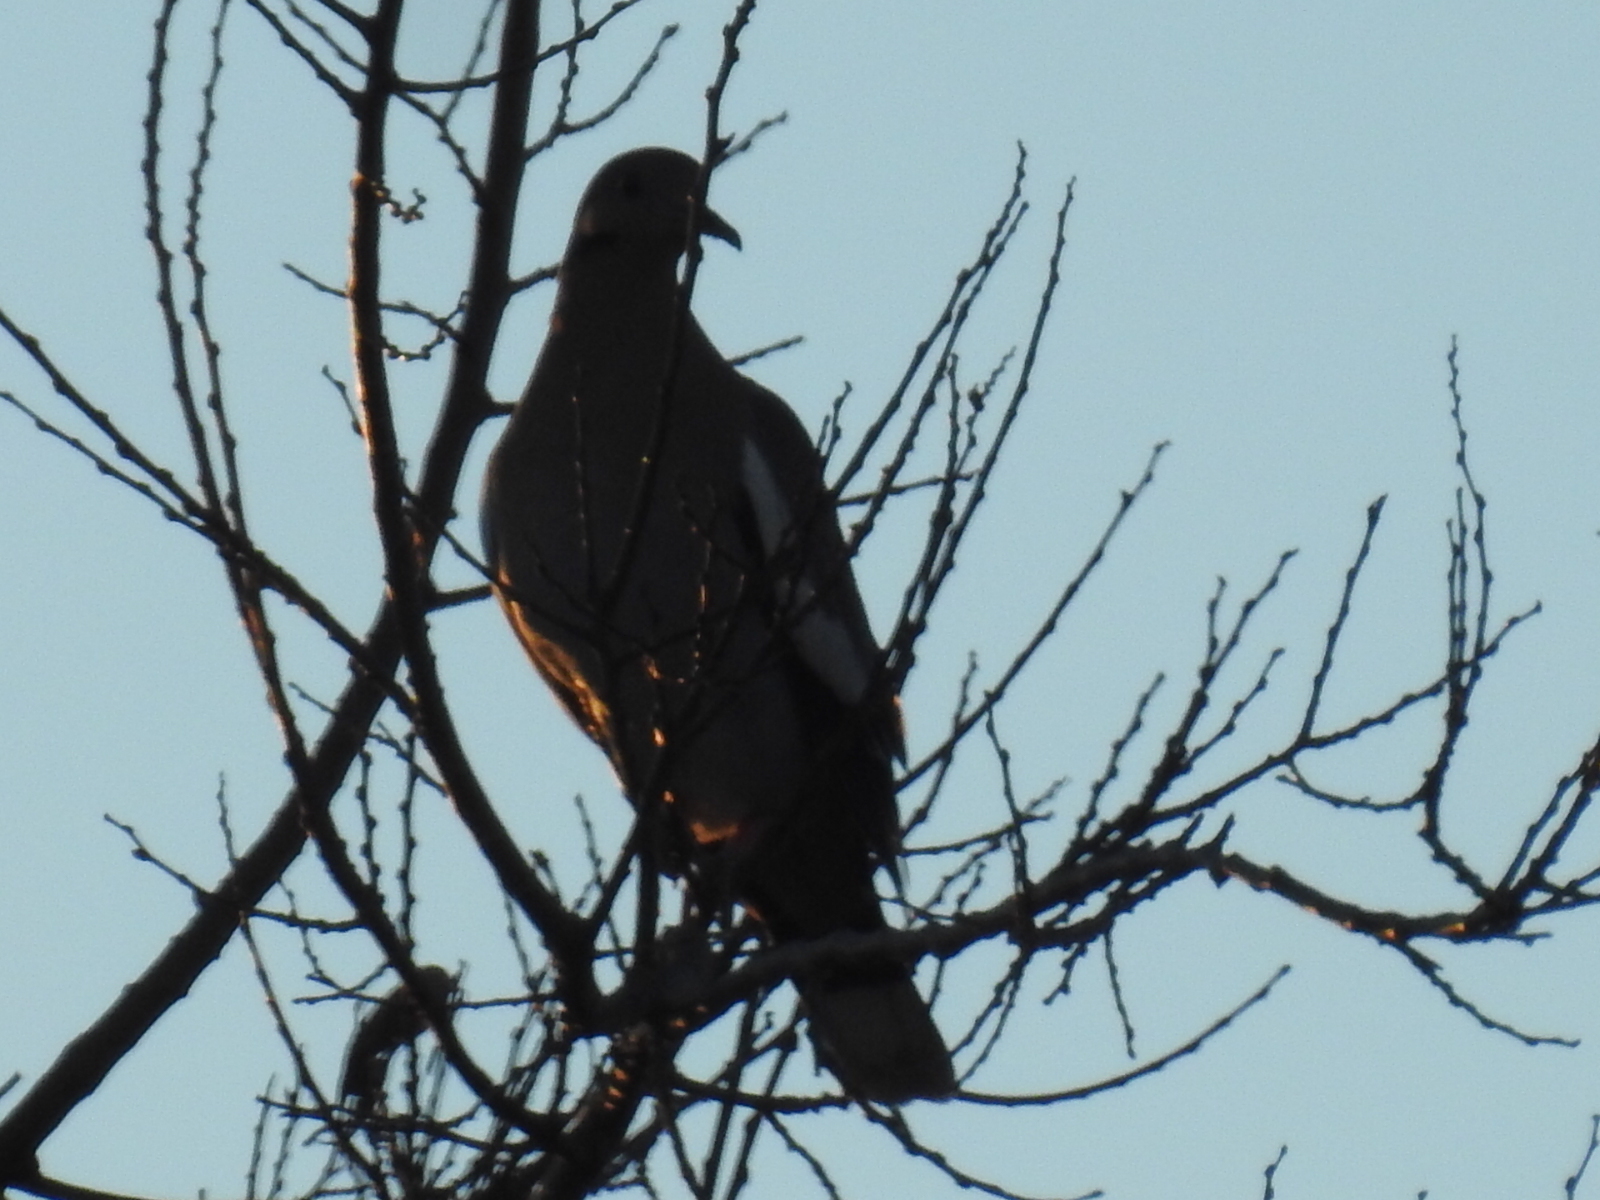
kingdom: Animalia
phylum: Chordata
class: Aves
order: Columbiformes
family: Columbidae
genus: Zenaida
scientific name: Zenaida asiatica
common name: White-winged dove
